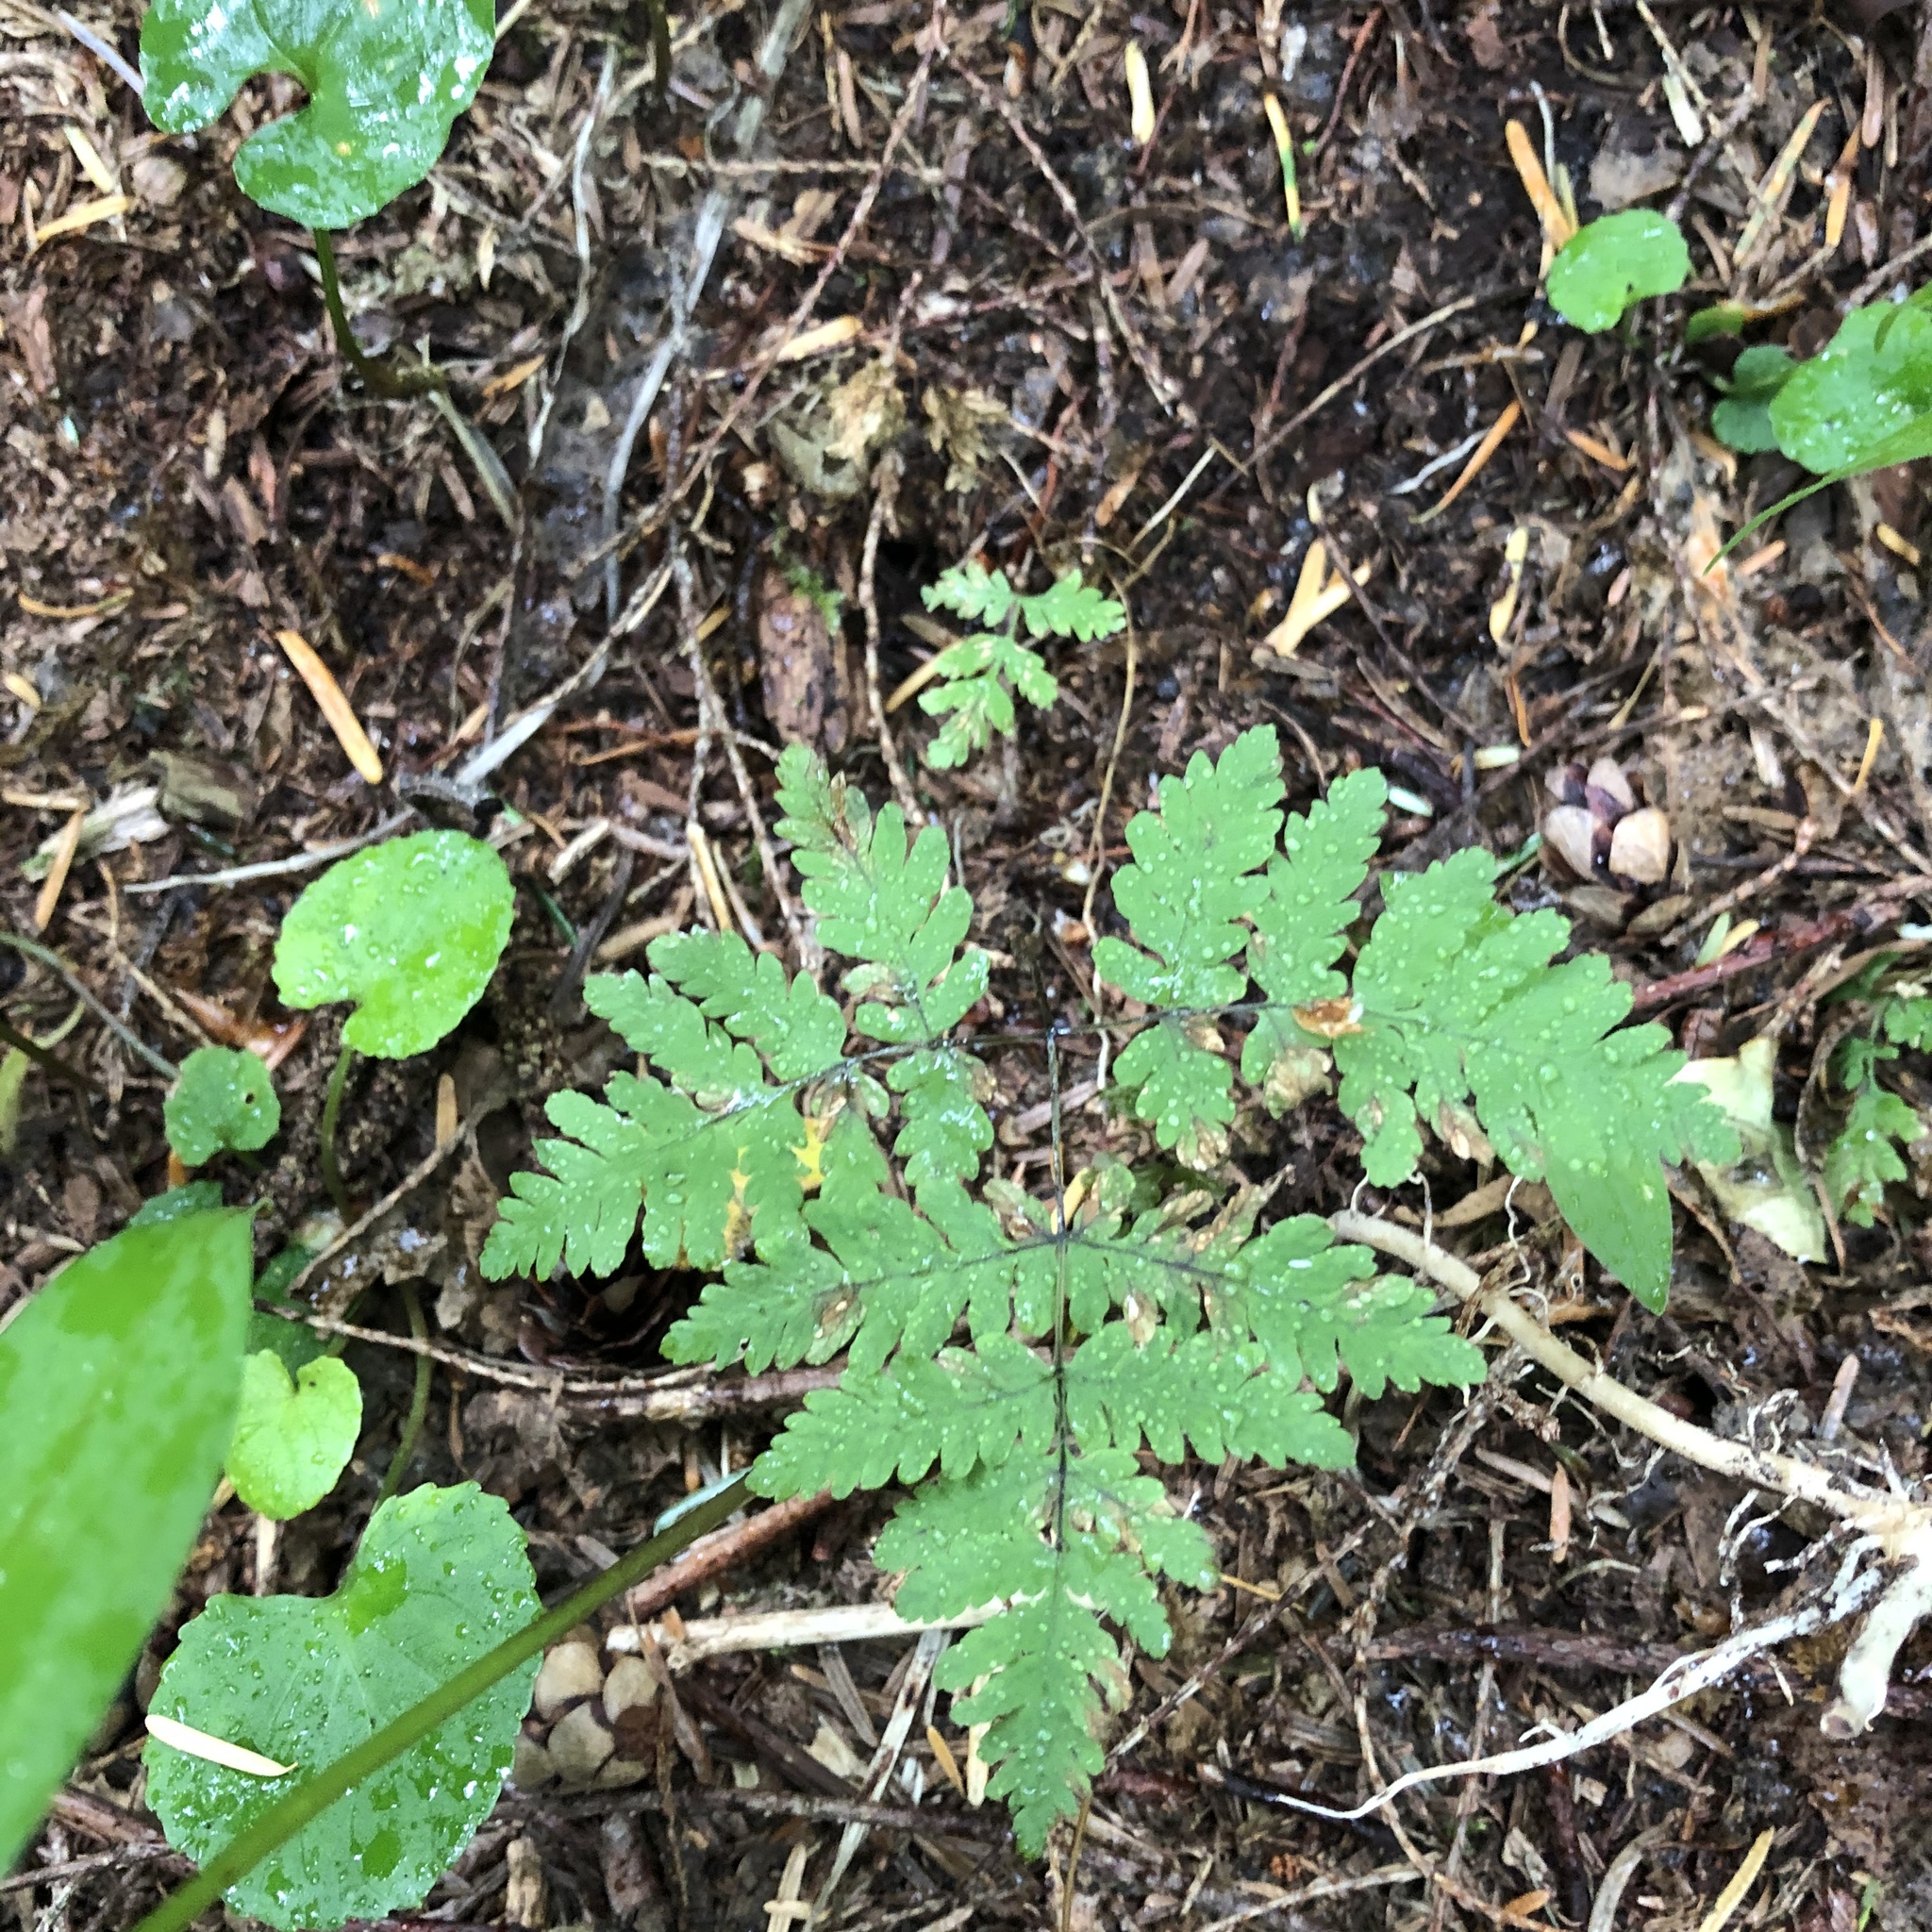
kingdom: Plantae
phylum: Tracheophyta
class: Polypodiopsida
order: Polypodiales
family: Cystopteridaceae
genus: Gymnocarpium
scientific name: Gymnocarpium disjunctum
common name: Western oak fern
